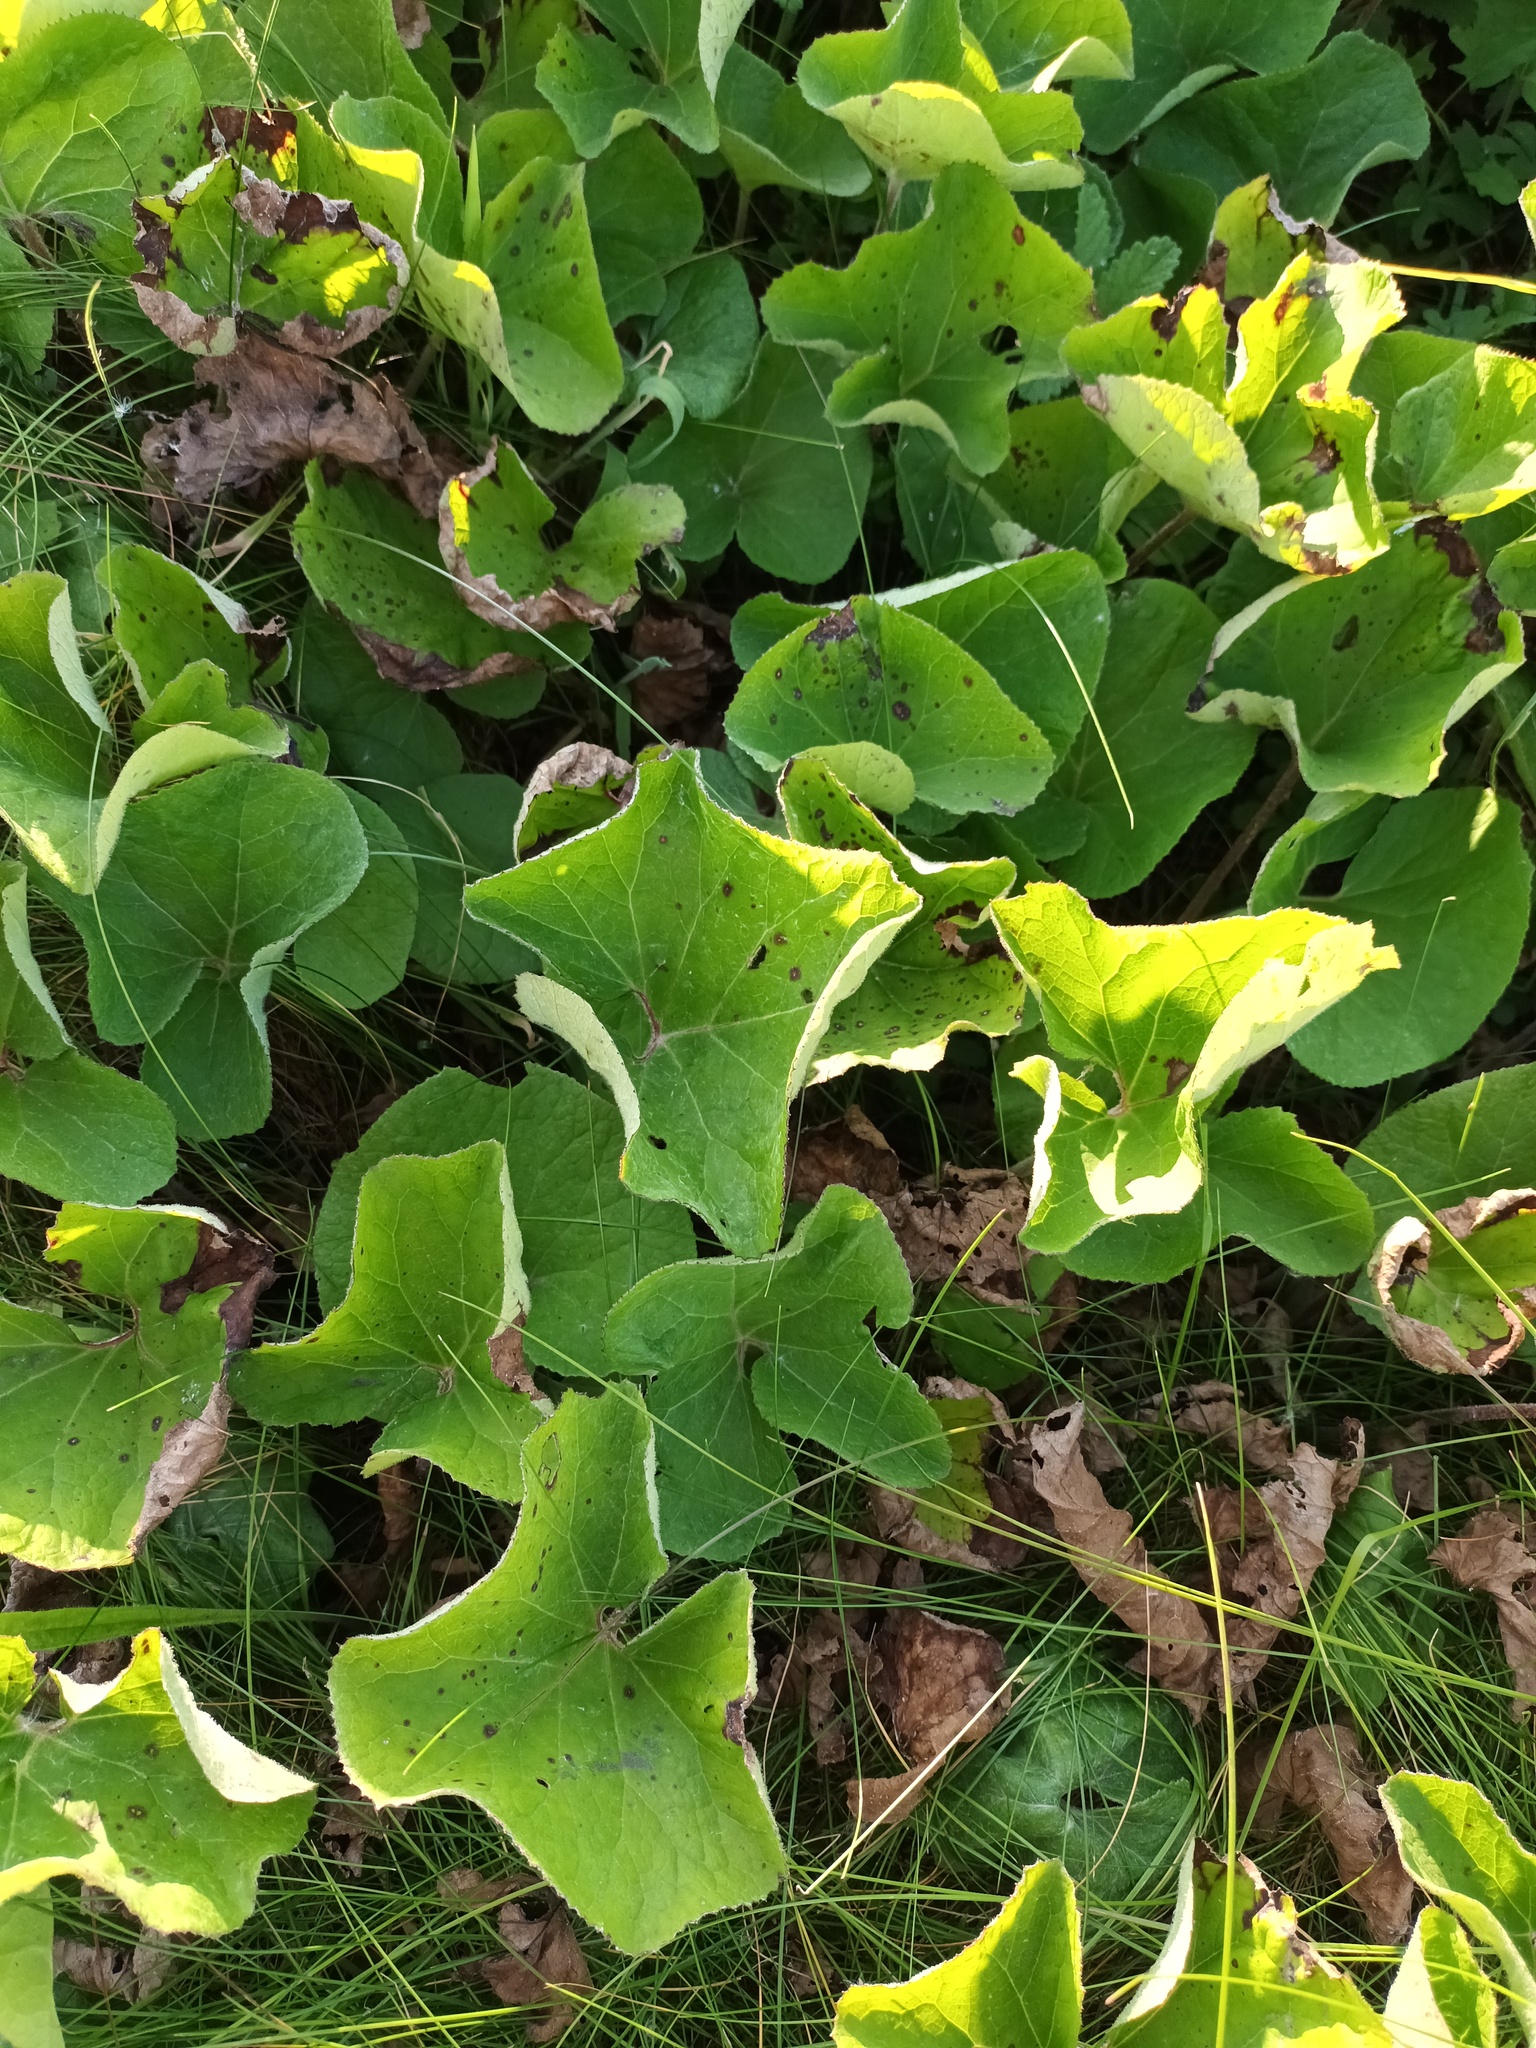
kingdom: Plantae
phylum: Tracheophyta
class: Magnoliopsida
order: Asterales
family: Asteraceae
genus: Petasites
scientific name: Petasites pyrenaicus
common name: Winter heliotrope
